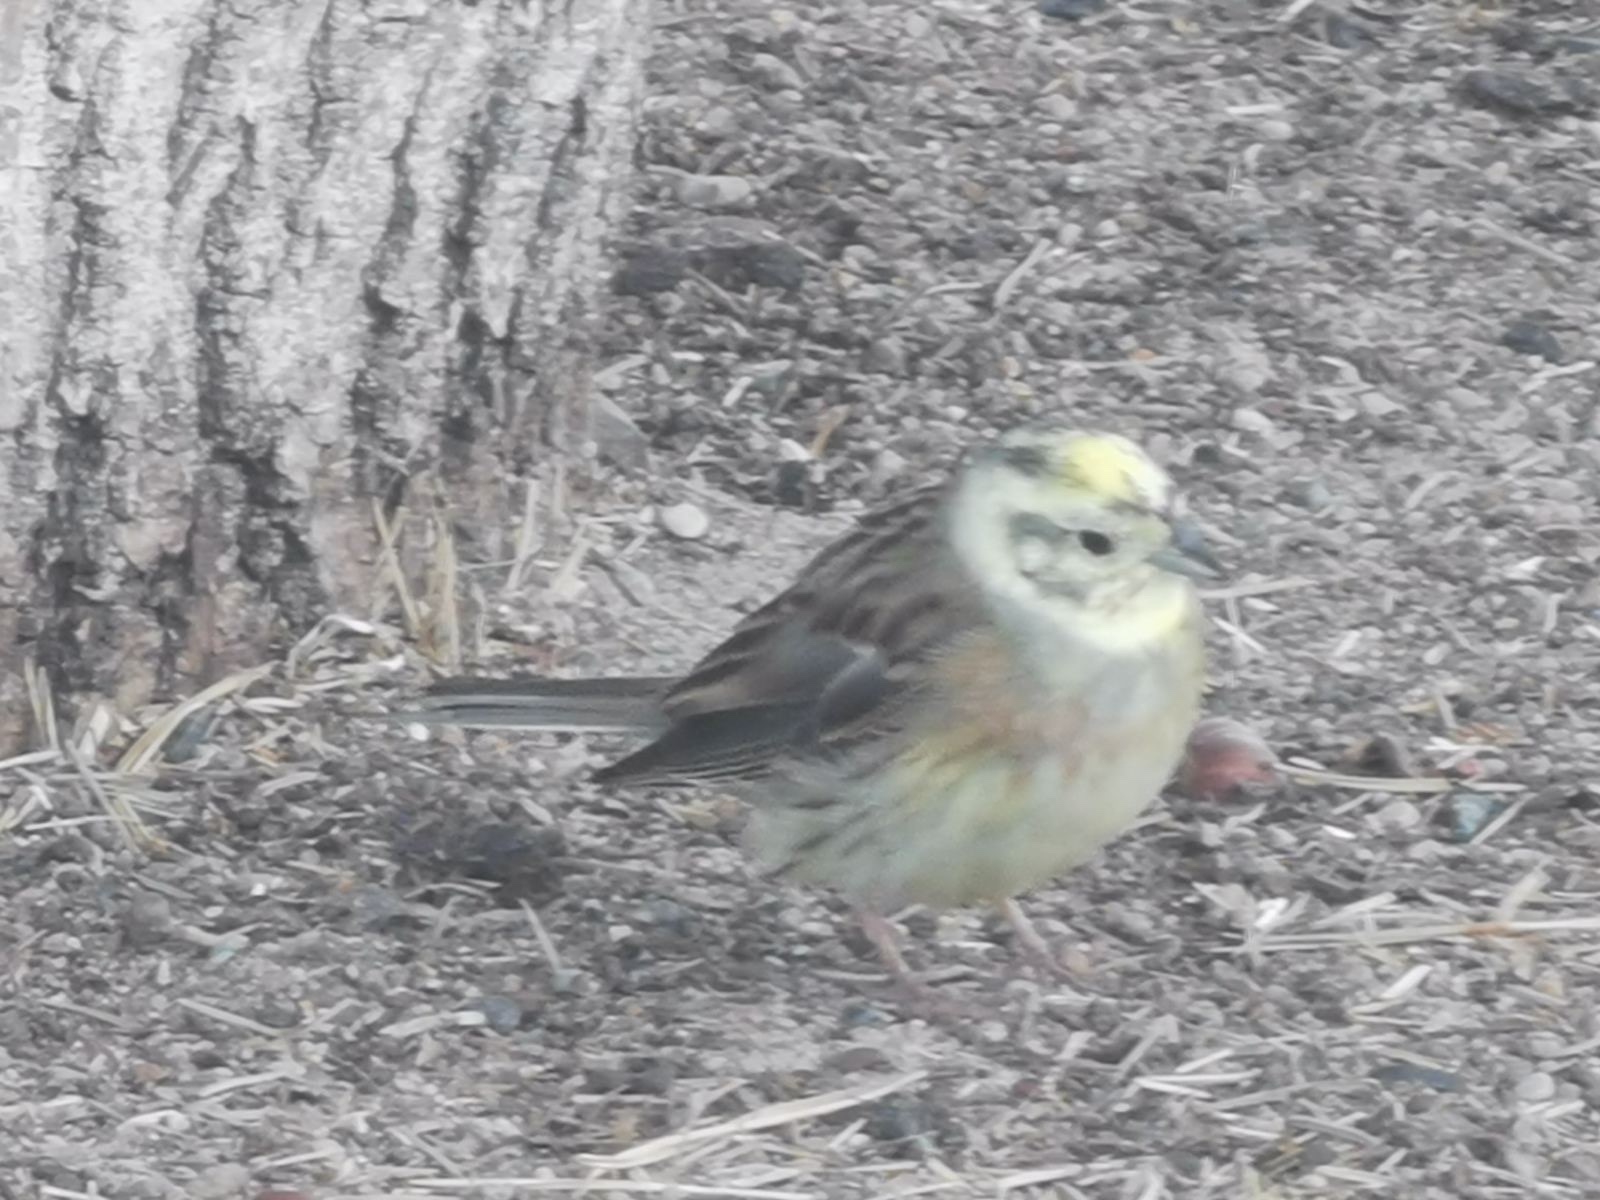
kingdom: Animalia
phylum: Chordata
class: Aves
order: Passeriformes
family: Emberizidae
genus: Emberiza
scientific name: Emberiza citrinella
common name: Yellowhammer
